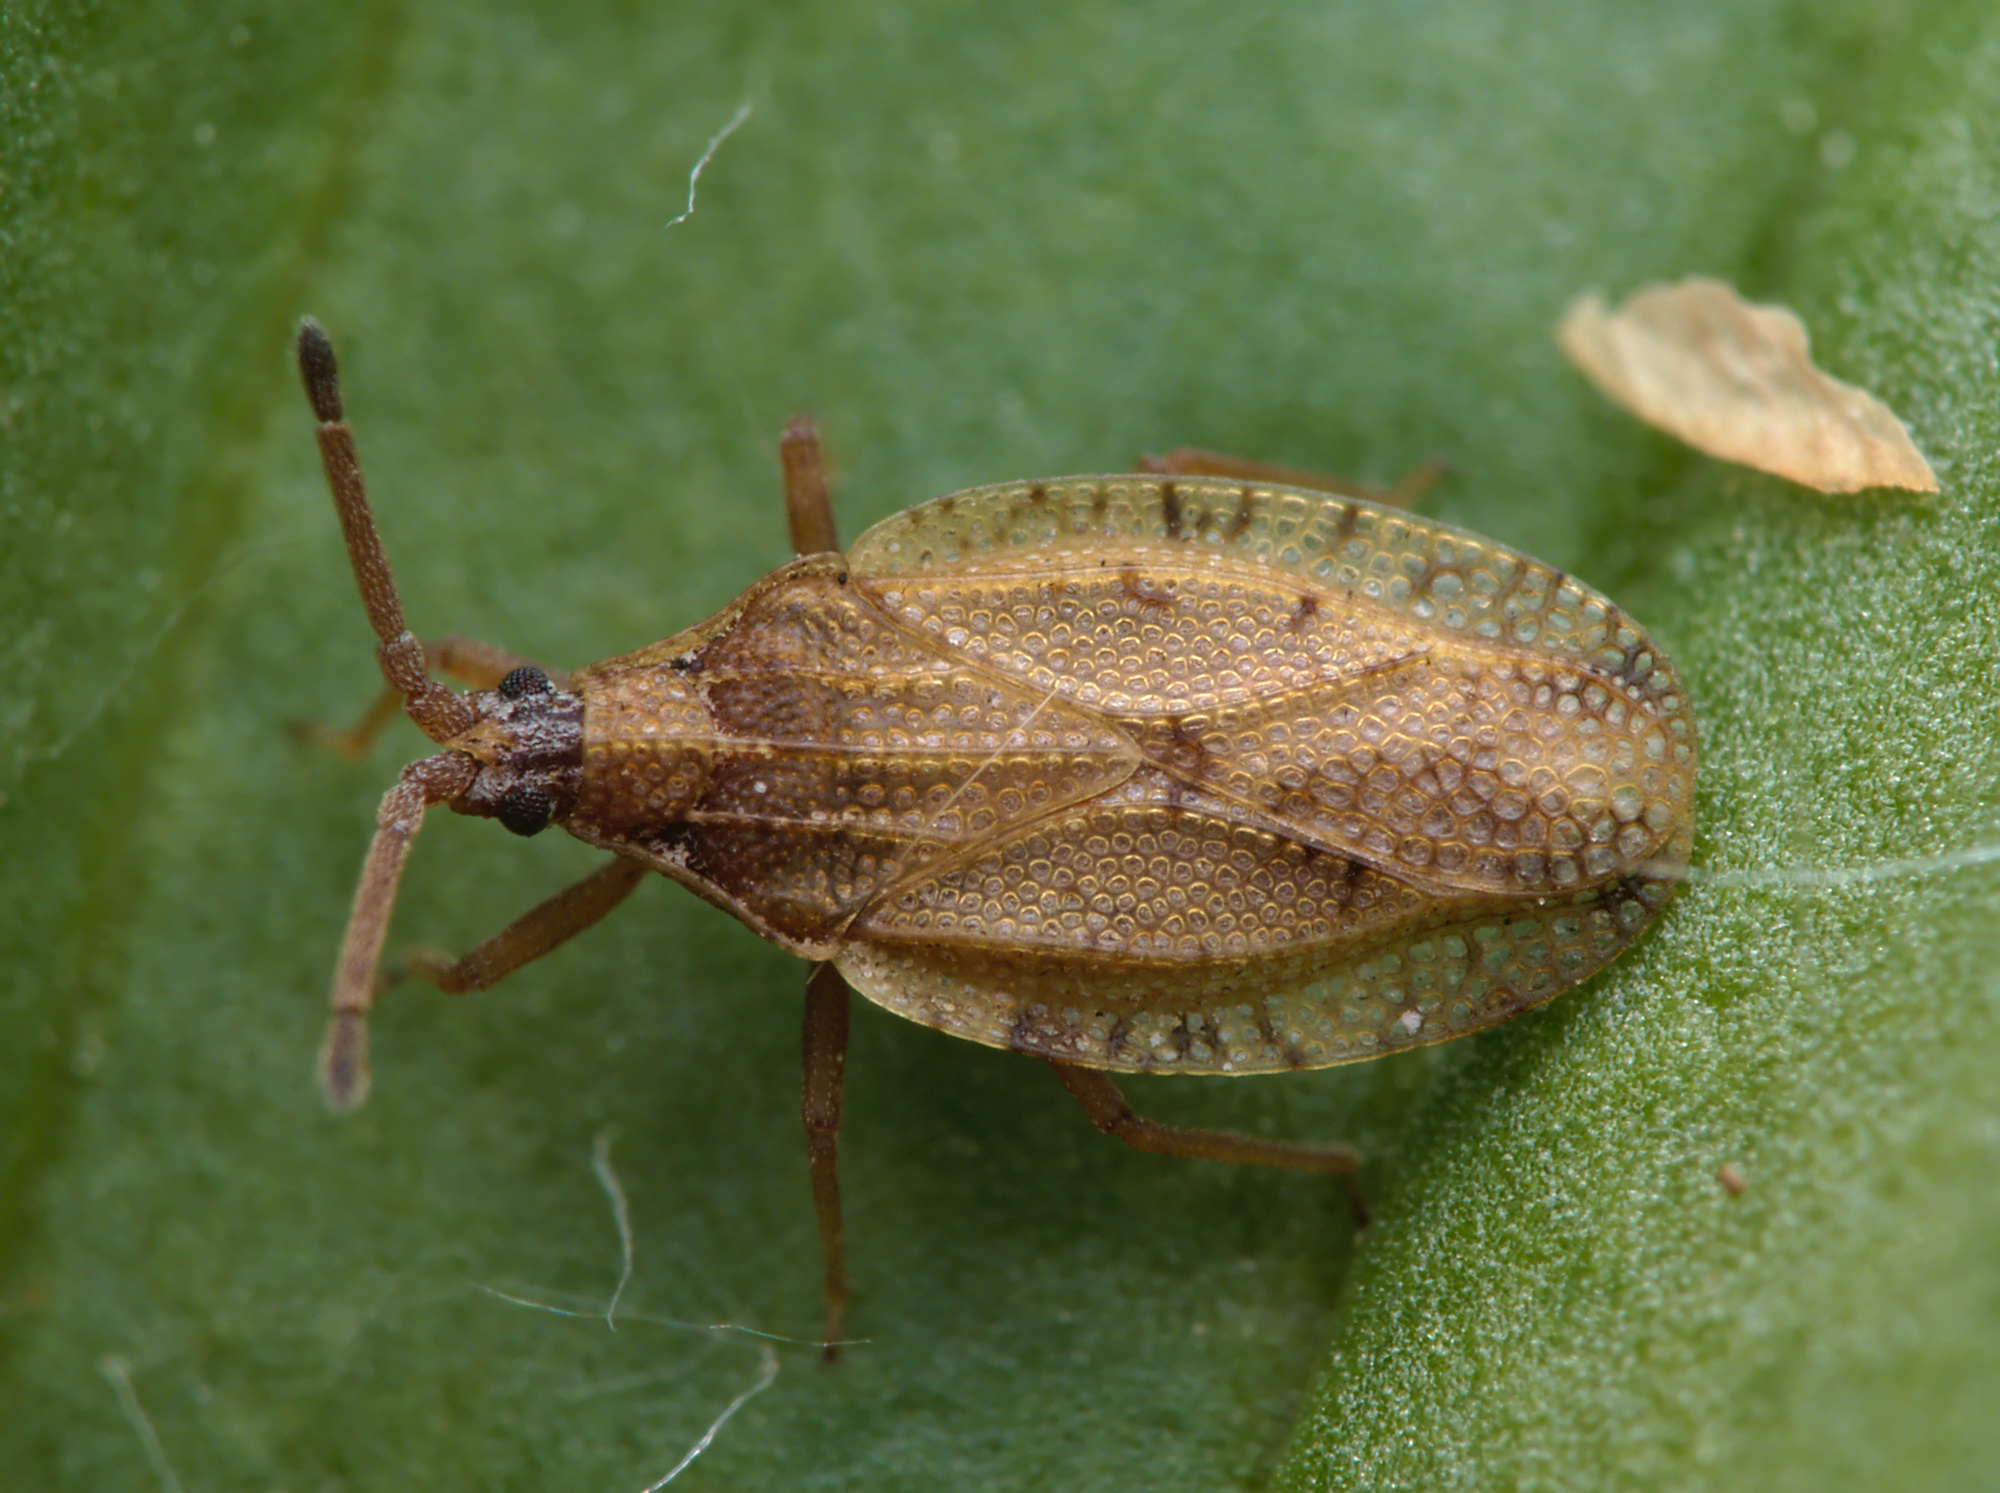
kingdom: Animalia
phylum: Arthropoda
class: Insecta
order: Hemiptera
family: Tingidae
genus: Catoplatus
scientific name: Catoplatus fabricii
